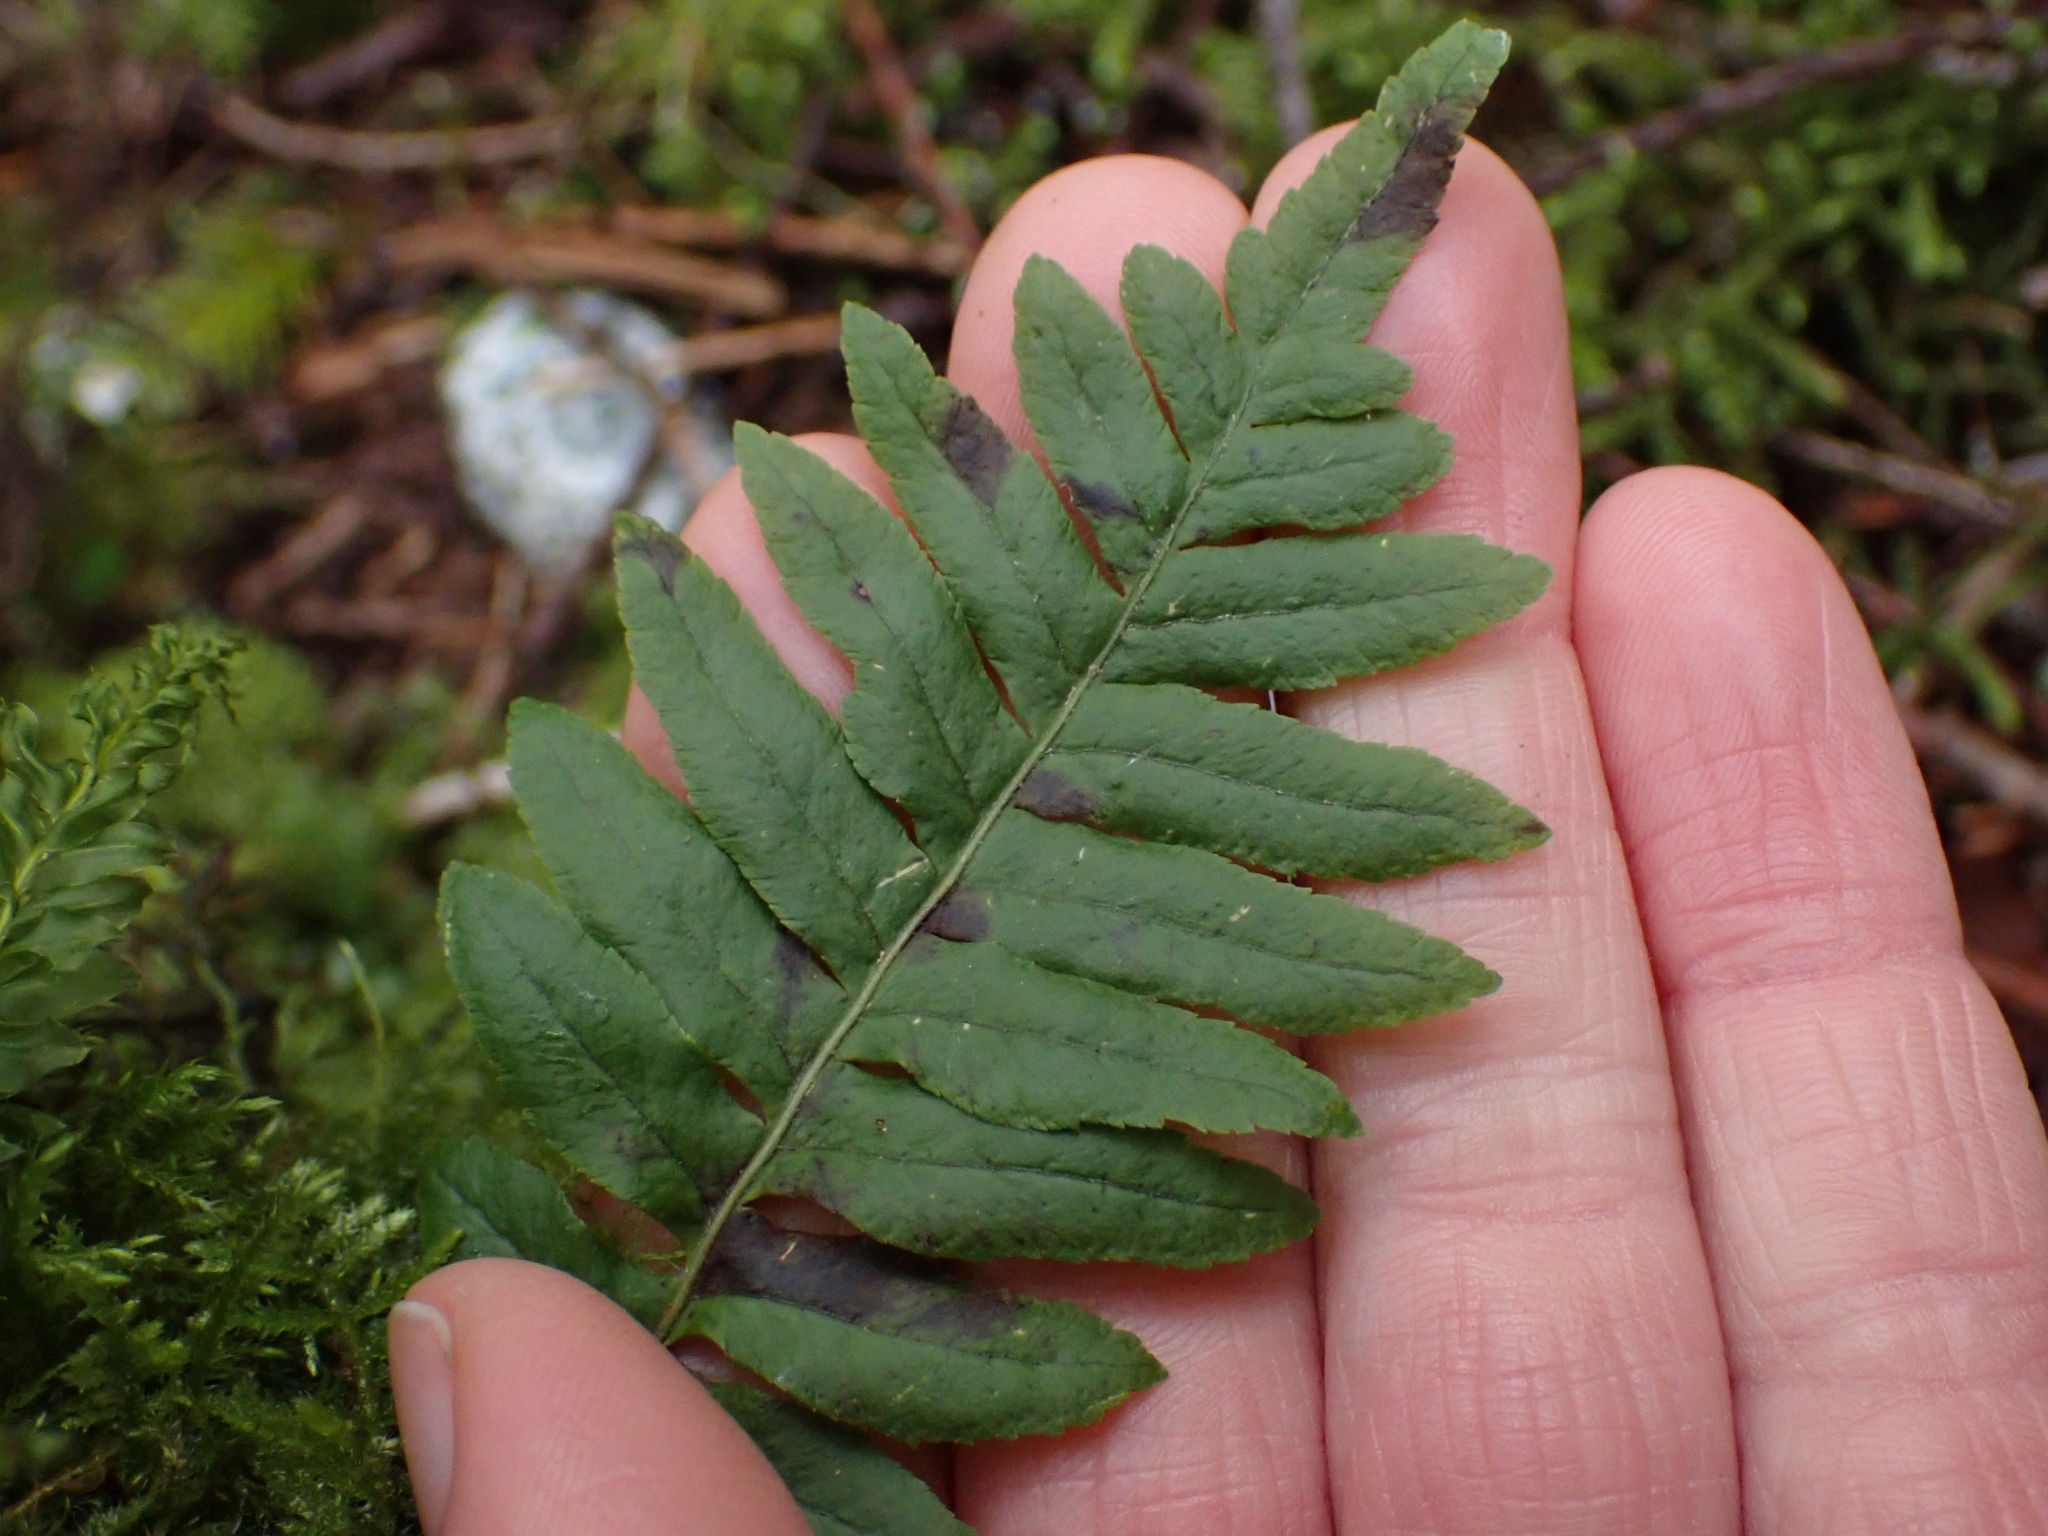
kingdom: Plantae
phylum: Tracheophyta
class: Polypodiopsida
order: Polypodiales
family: Polypodiaceae
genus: Polypodium
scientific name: Polypodium glycyrrhiza
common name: Licorice fern
